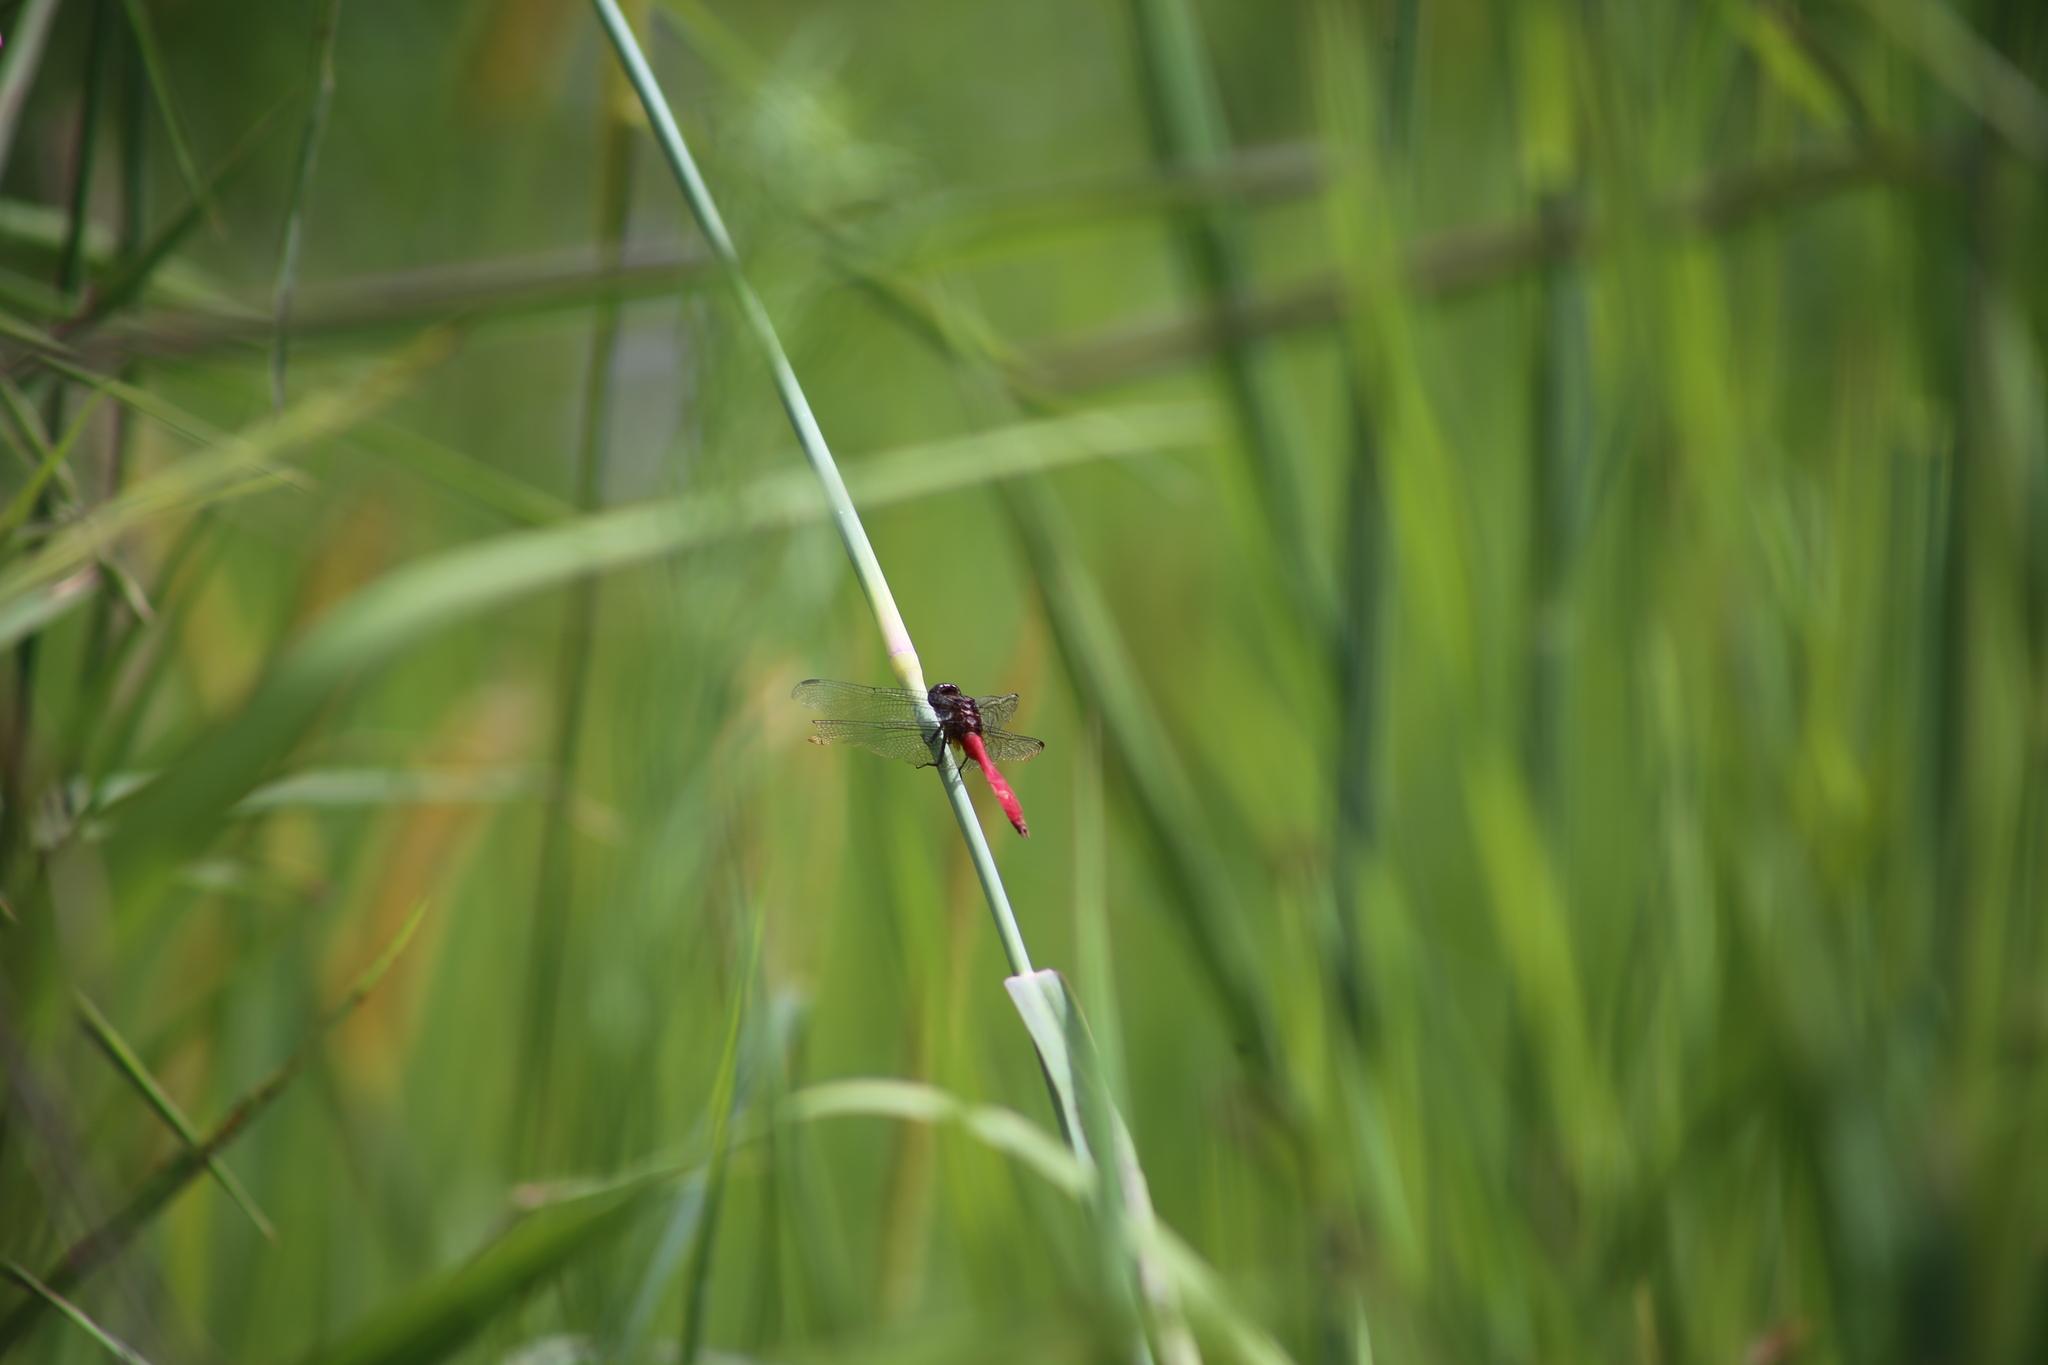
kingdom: Animalia
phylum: Arthropoda
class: Insecta
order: Odonata
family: Libellulidae
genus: Orthetrum
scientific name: Orthetrum villosovittatum
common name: Firery skimmer
